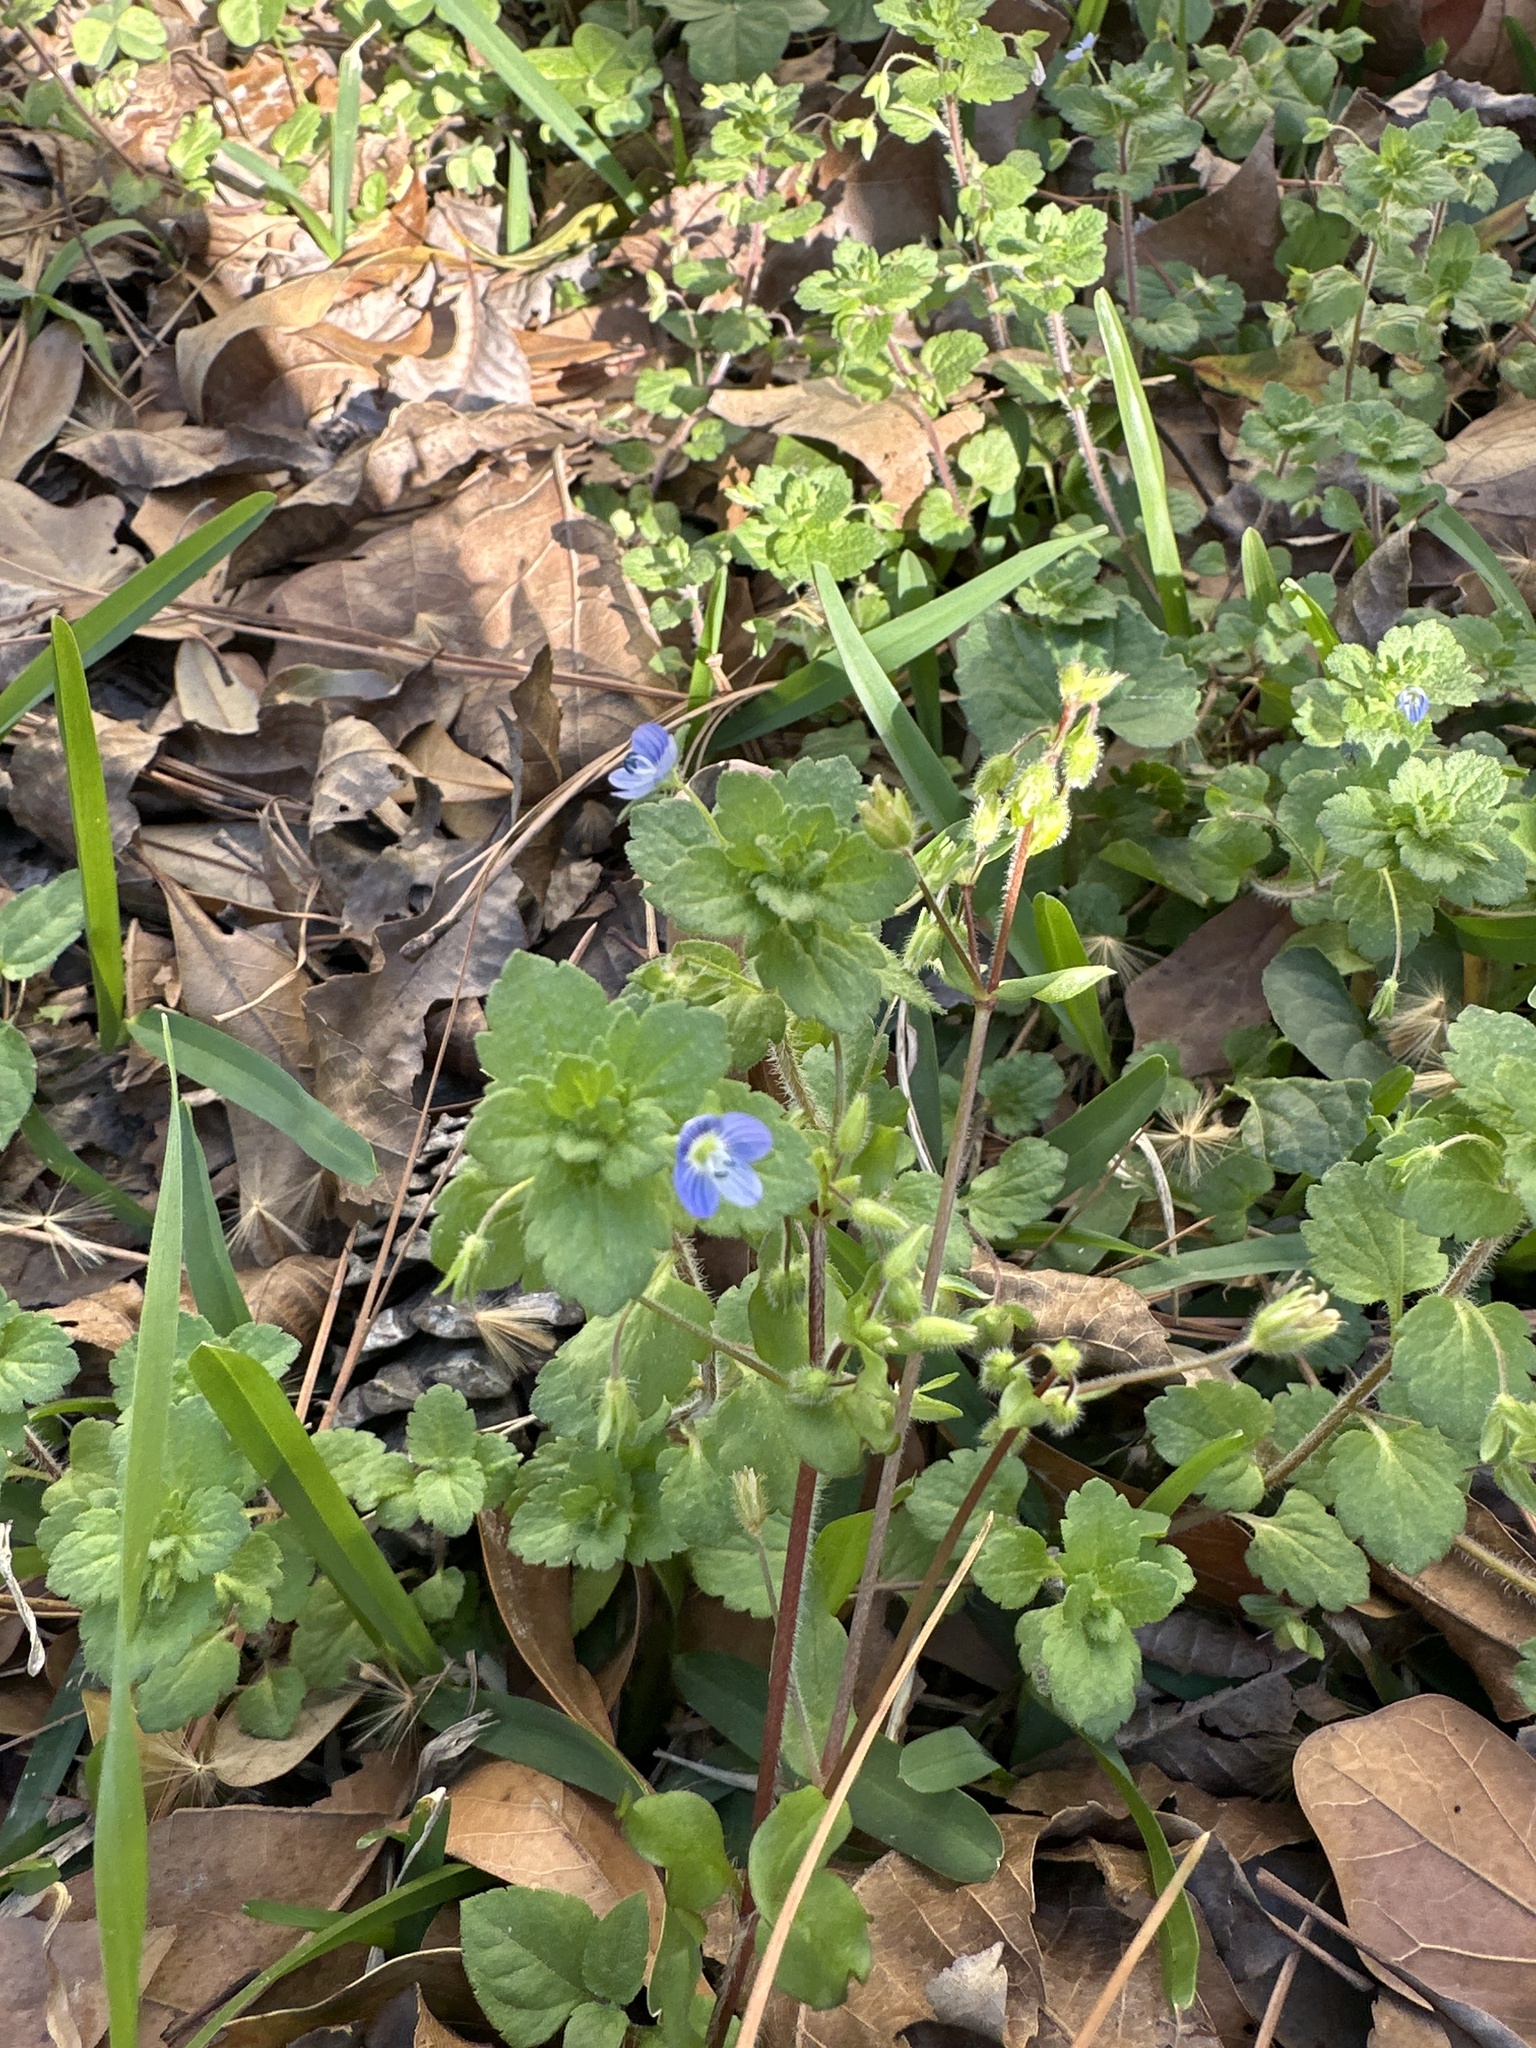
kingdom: Plantae
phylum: Tracheophyta
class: Magnoliopsida
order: Lamiales
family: Plantaginaceae
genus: Veronica
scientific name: Veronica persica
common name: Common field-speedwell
